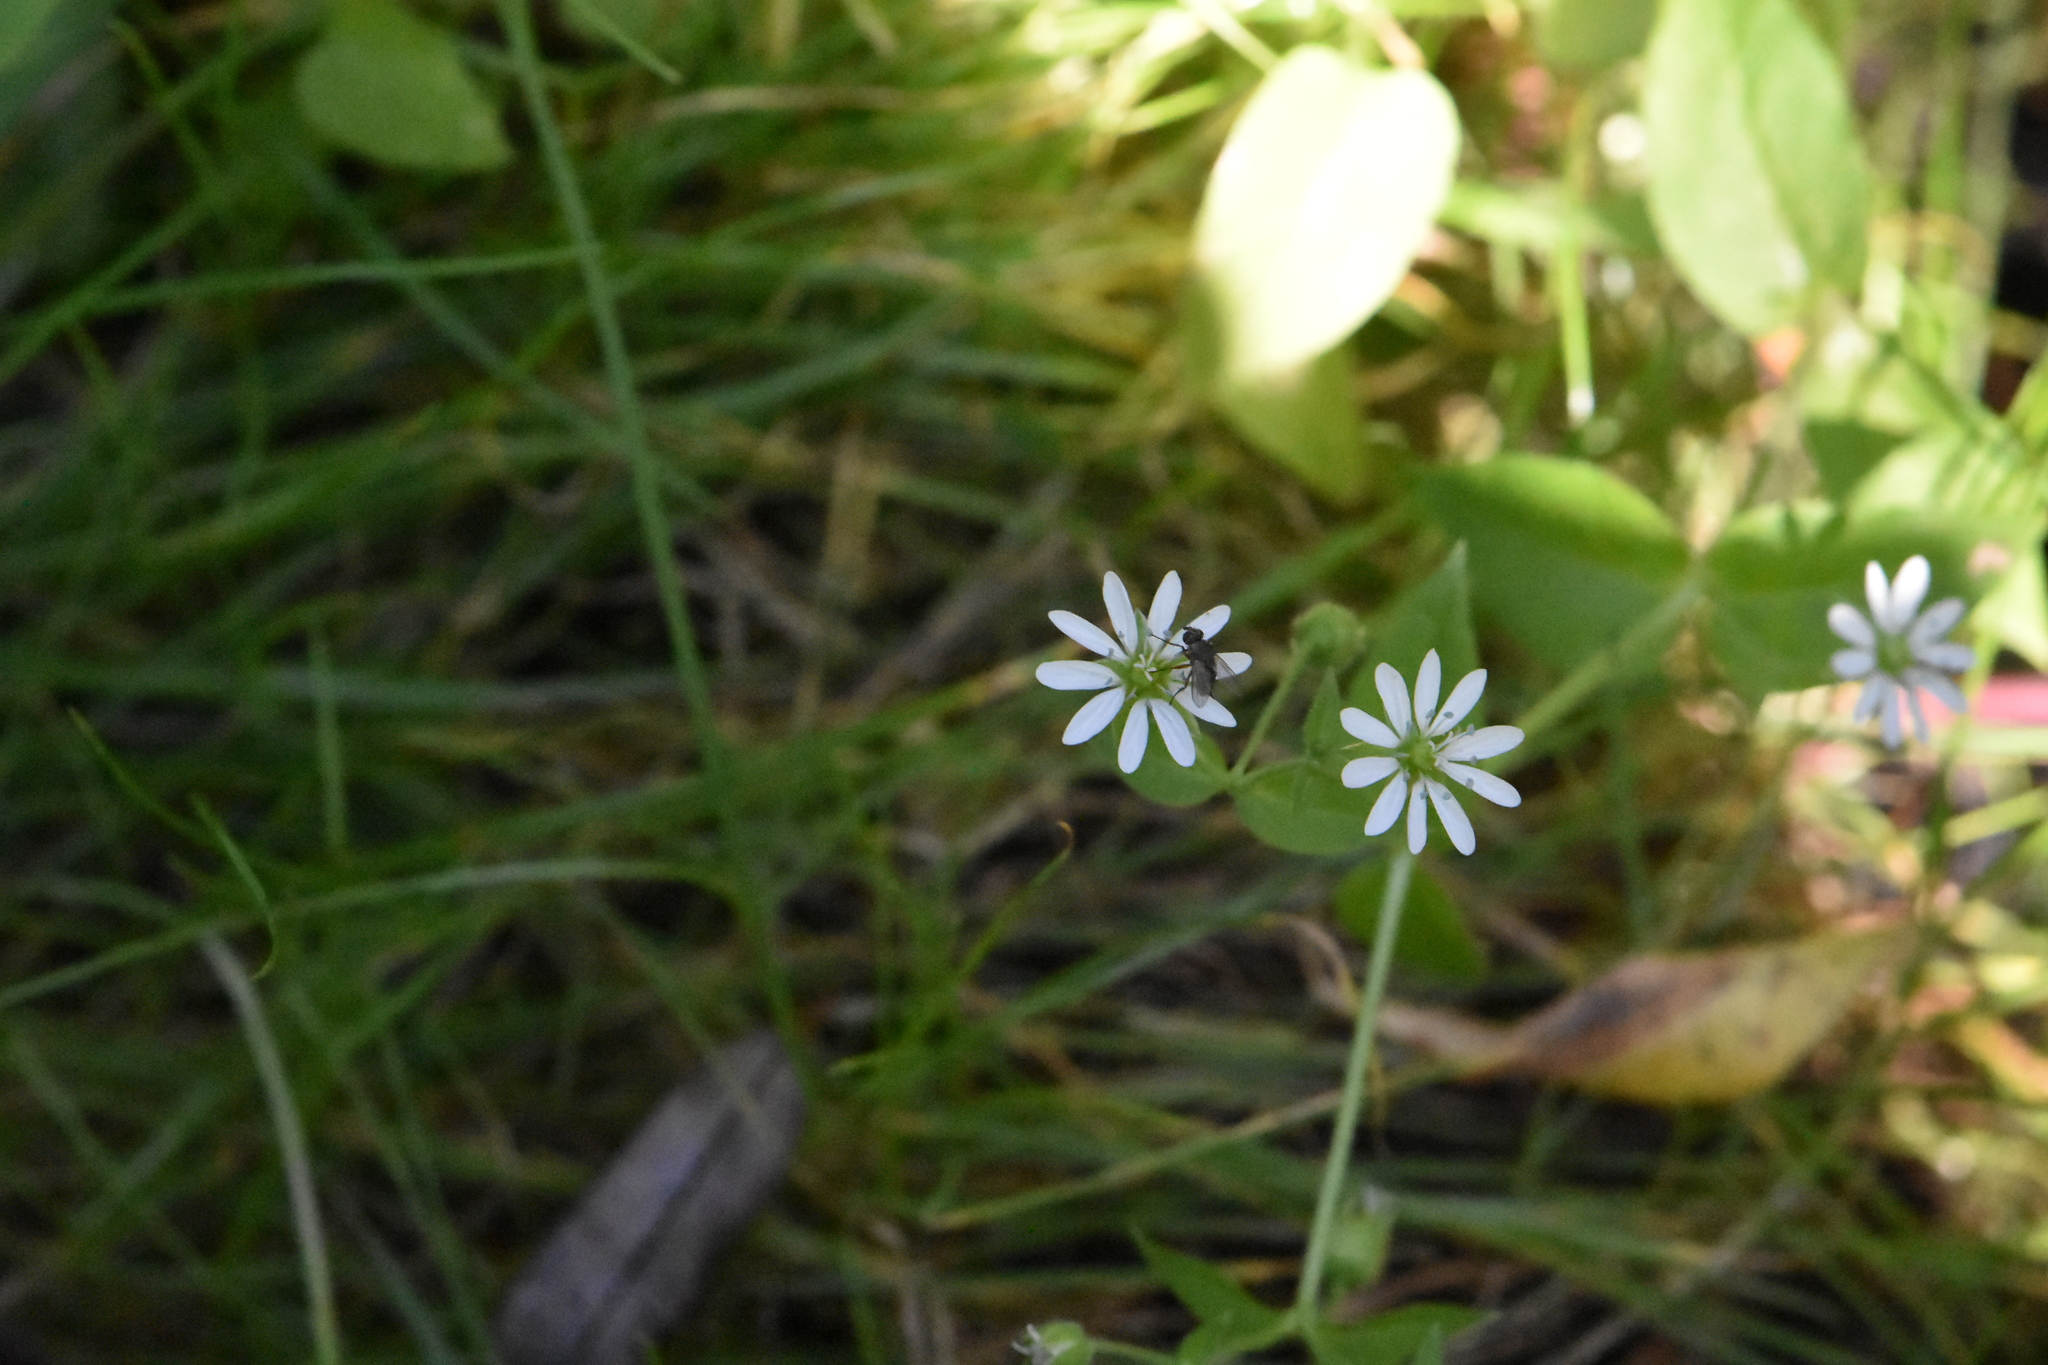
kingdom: Plantae
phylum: Tracheophyta
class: Magnoliopsida
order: Caryophyllales
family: Caryophyllaceae
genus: Stellaria
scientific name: Stellaria aquatica
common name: Water chickweed
